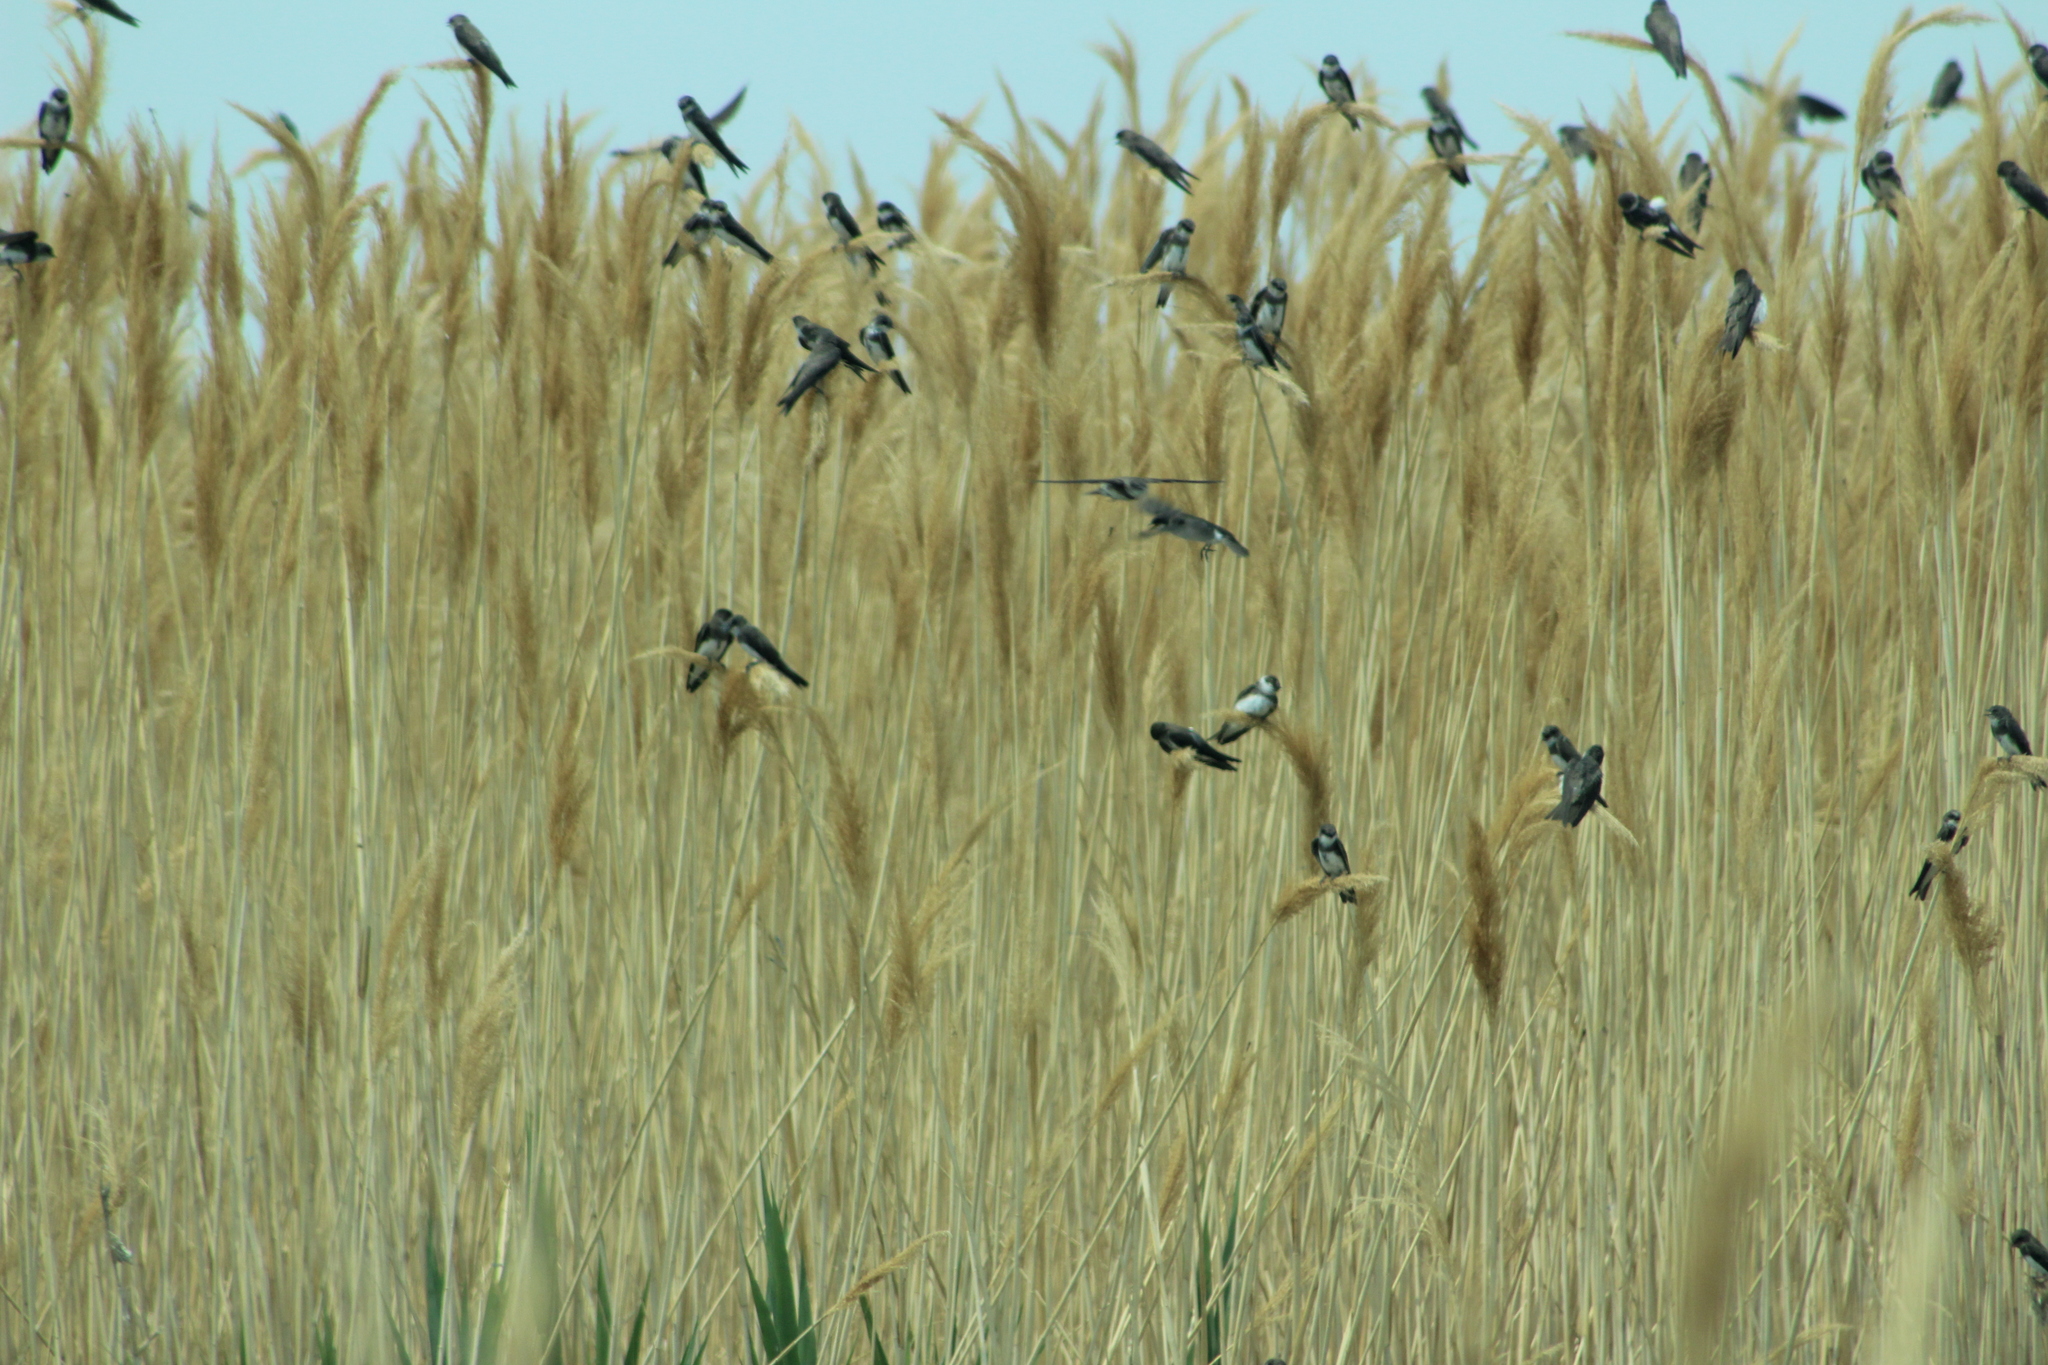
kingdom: Animalia
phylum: Chordata
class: Aves
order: Passeriformes
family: Hirundinidae
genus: Riparia
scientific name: Riparia riparia
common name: Sand martin
